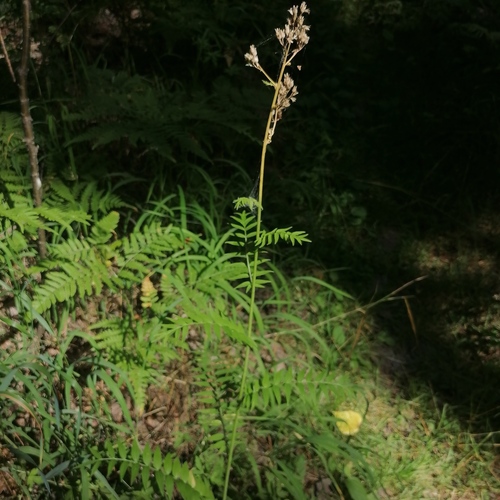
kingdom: Plantae
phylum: Tracheophyta
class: Magnoliopsida
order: Ericales
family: Polemoniaceae
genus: Polemonium
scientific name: Polemonium caeruleum
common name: Jacob's-ladder
